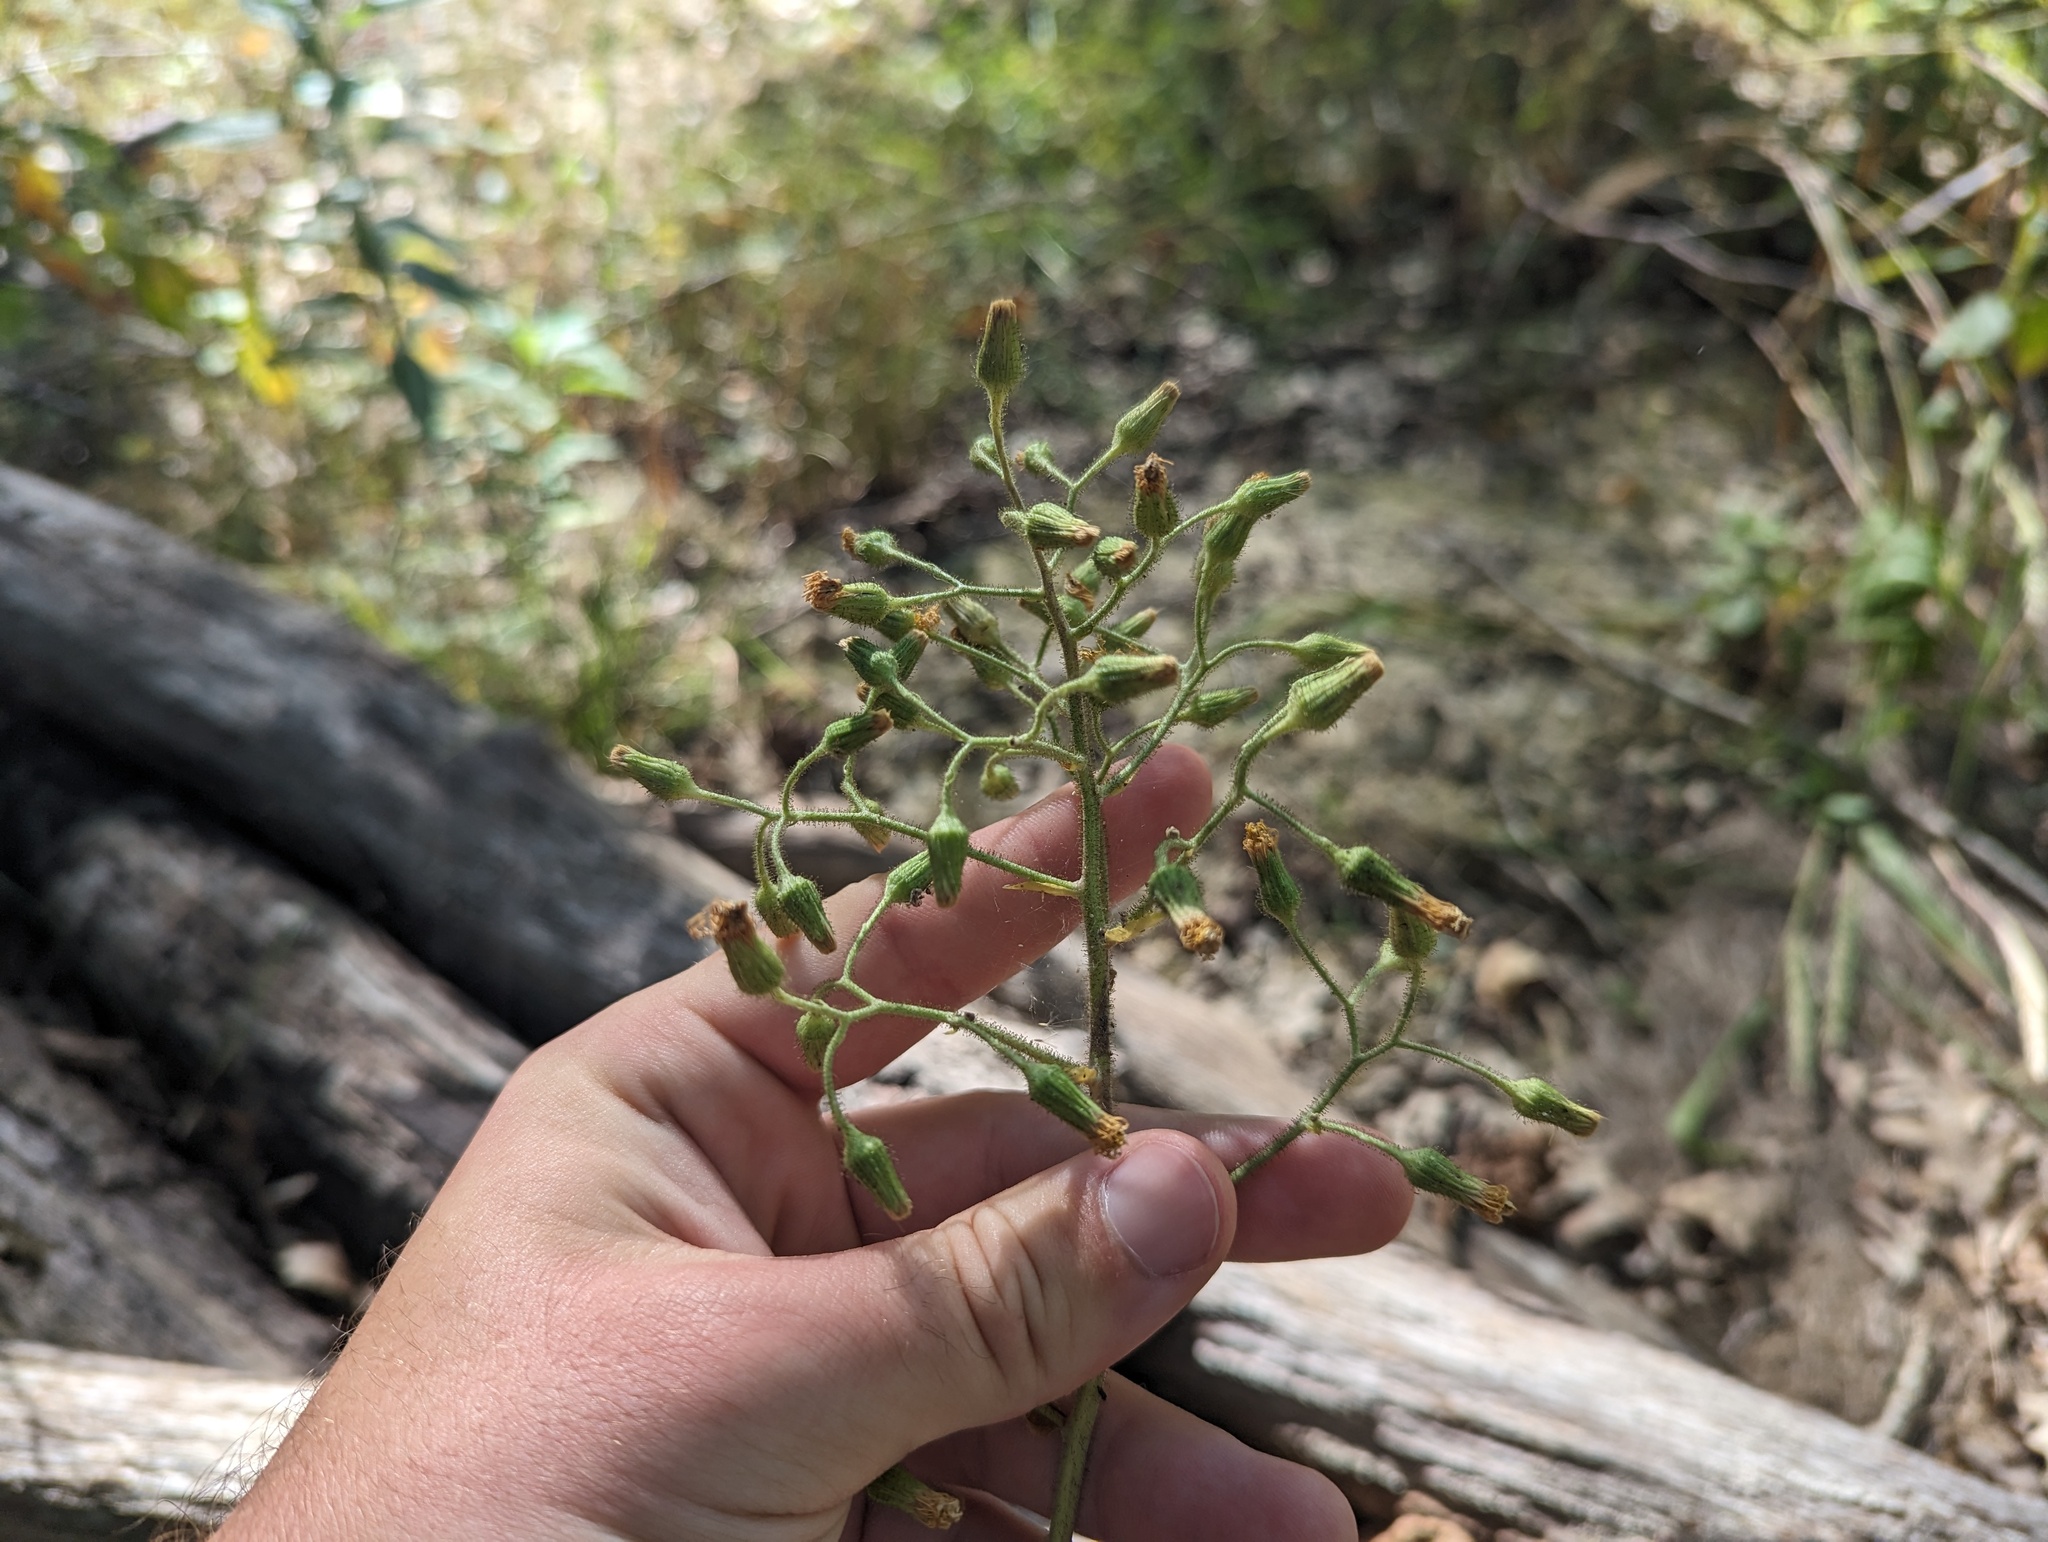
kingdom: Plantae
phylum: Tracheophyta
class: Magnoliopsida
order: Asterales
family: Asteraceae
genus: Hieracium
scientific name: Hieracium scabrum
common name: Rough hawkweed
